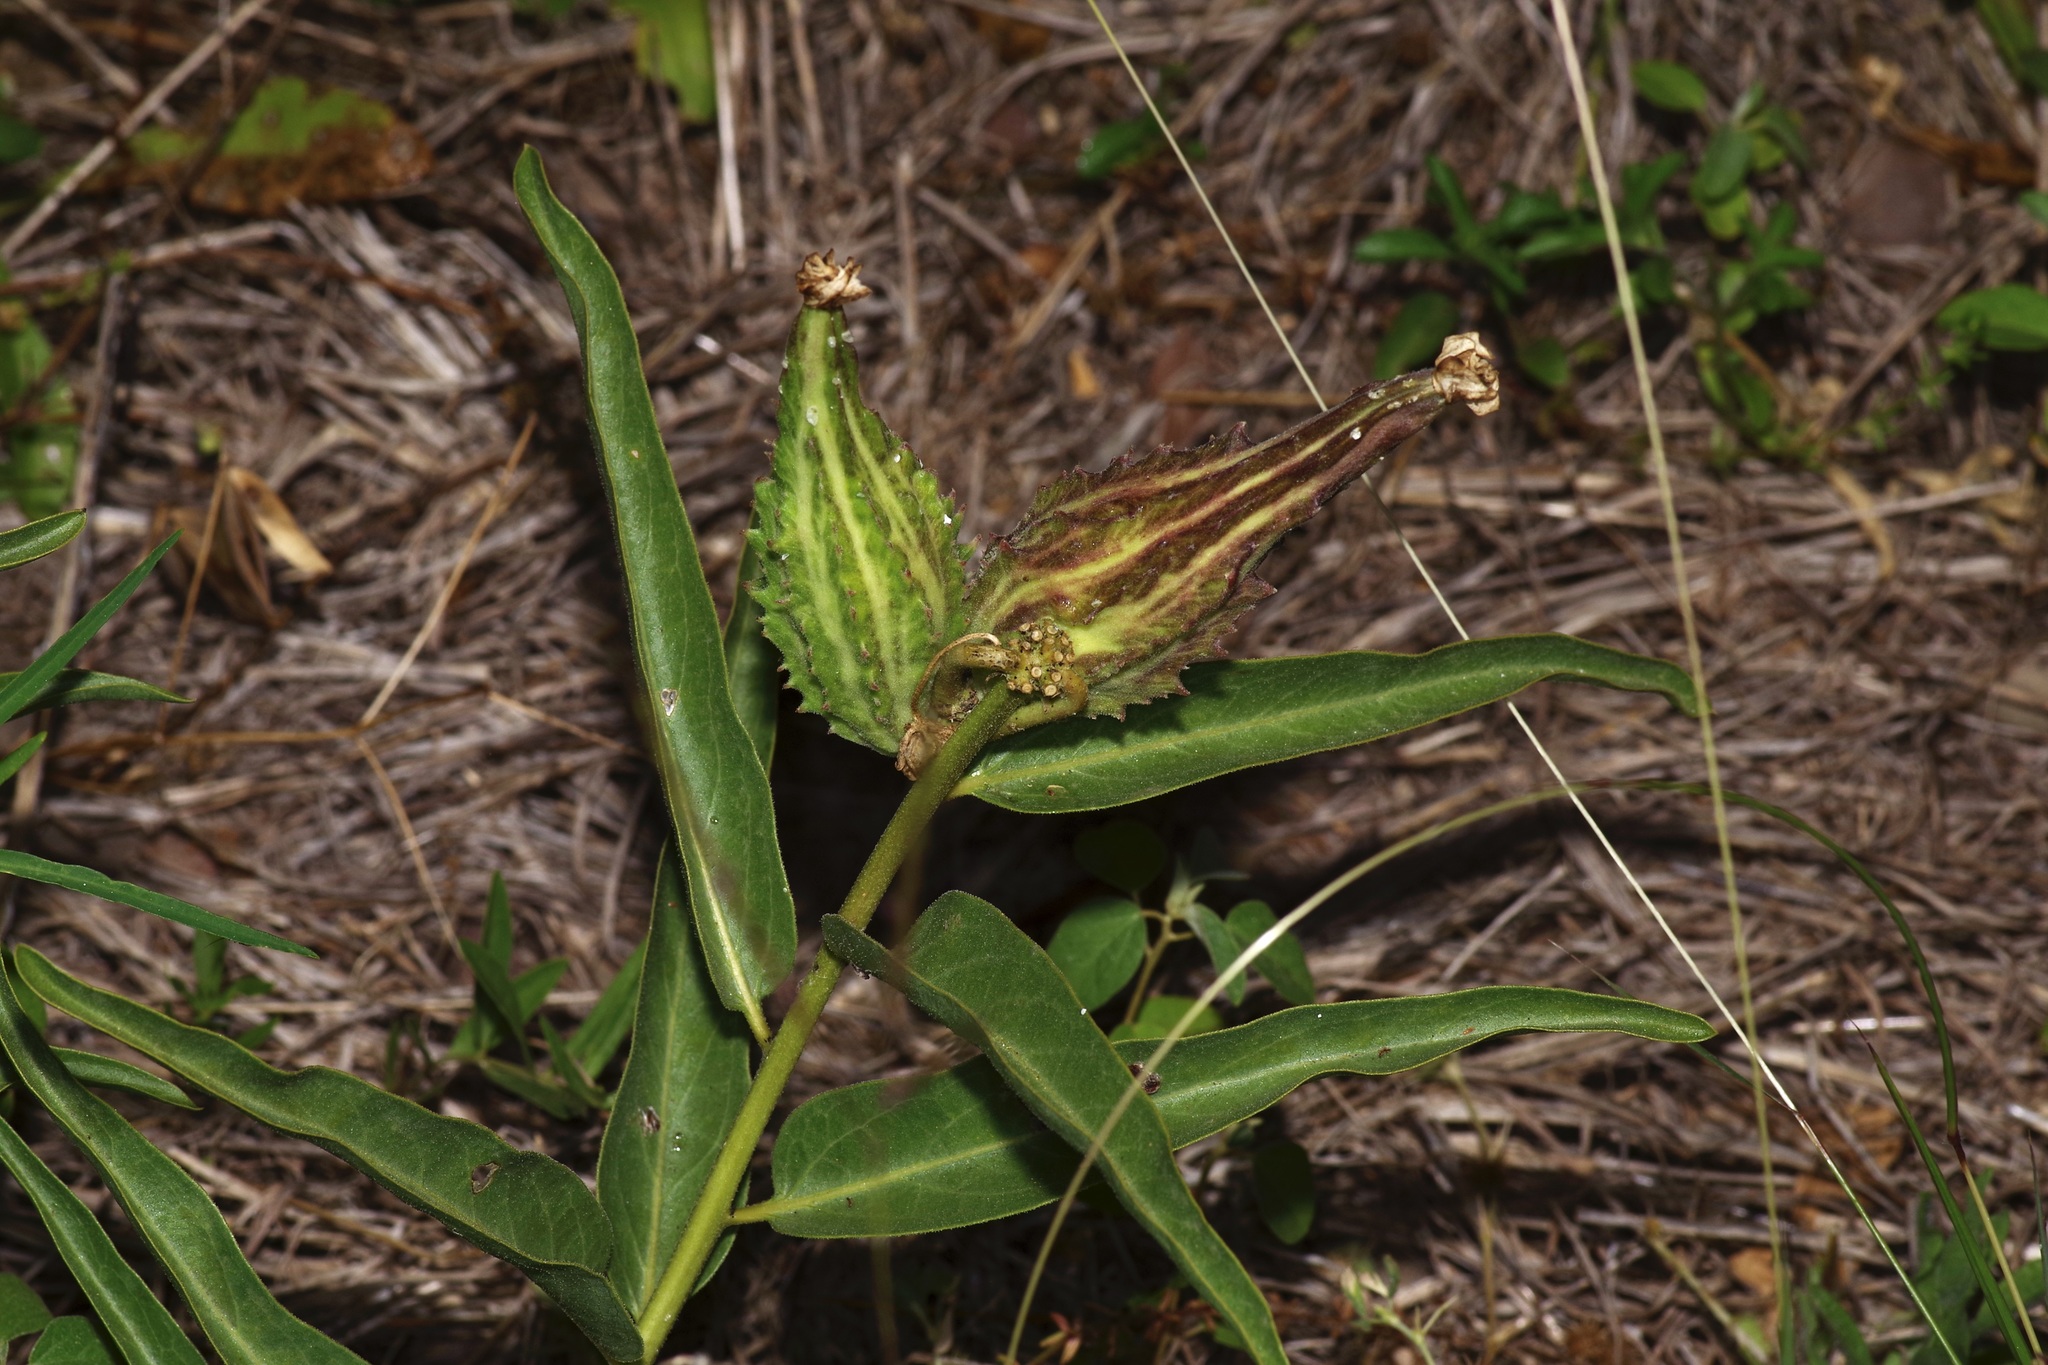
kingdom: Plantae
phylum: Tracheophyta
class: Magnoliopsida
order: Gentianales
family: Apocynaceae
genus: Asclepias
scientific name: Asclepias asperula
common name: Antelope horns
